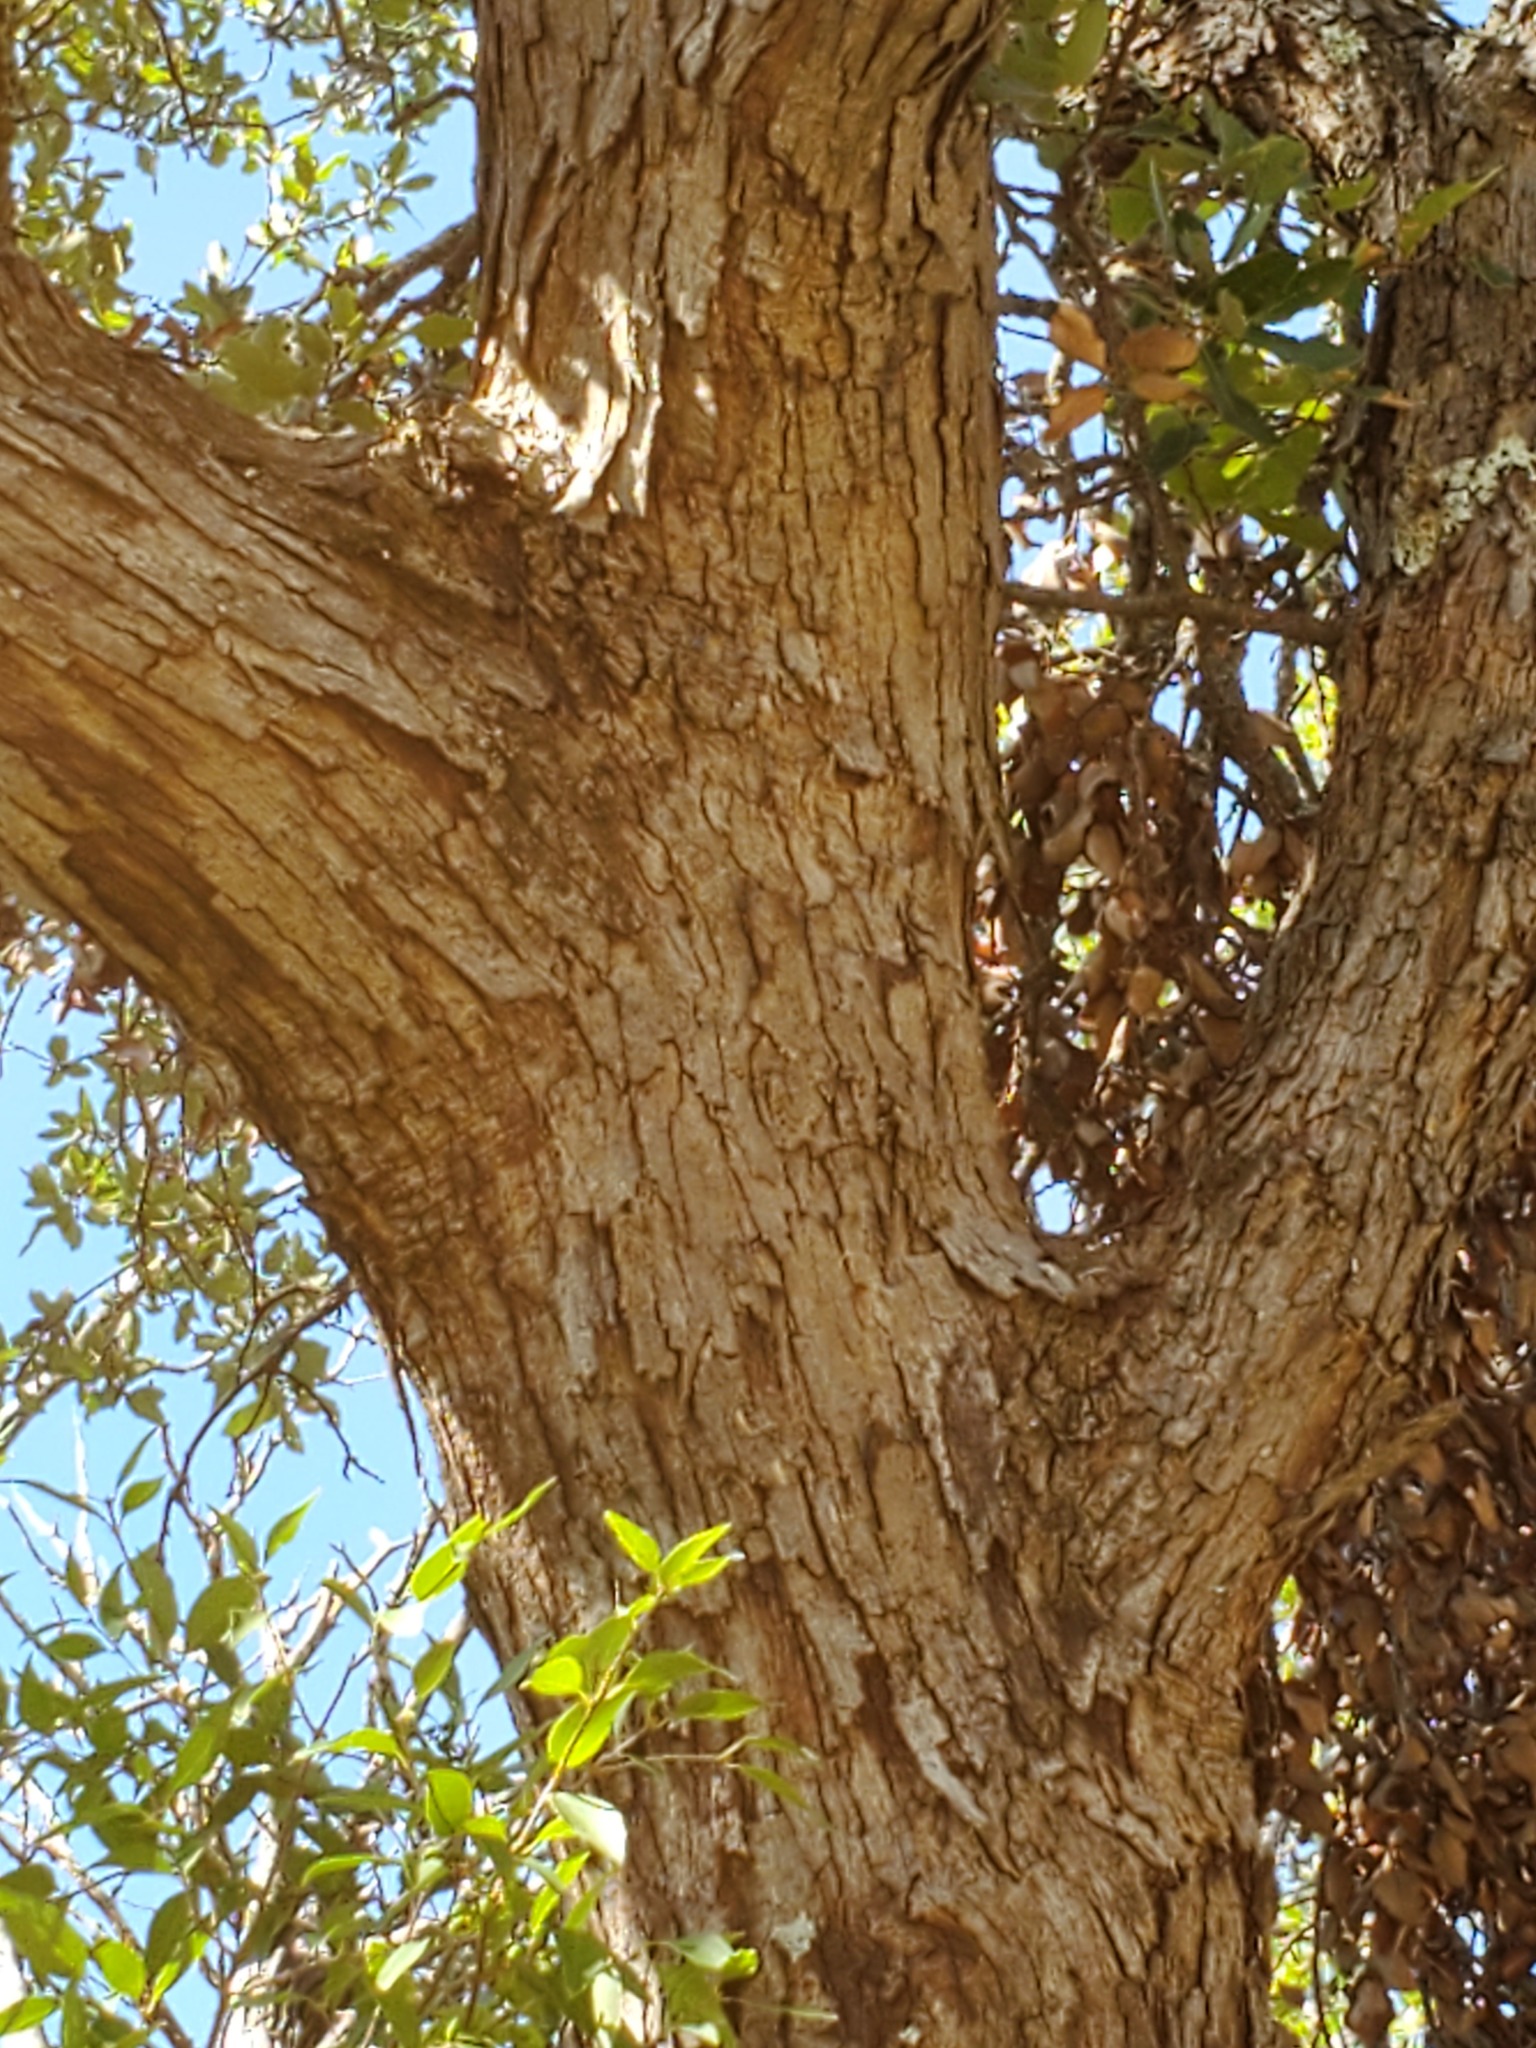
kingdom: Plantae
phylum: Tracheophyta
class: Magnoliopsida
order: Fagales
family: Fagaceae
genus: Quercus
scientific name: Quercus sinuata
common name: Durand oak
